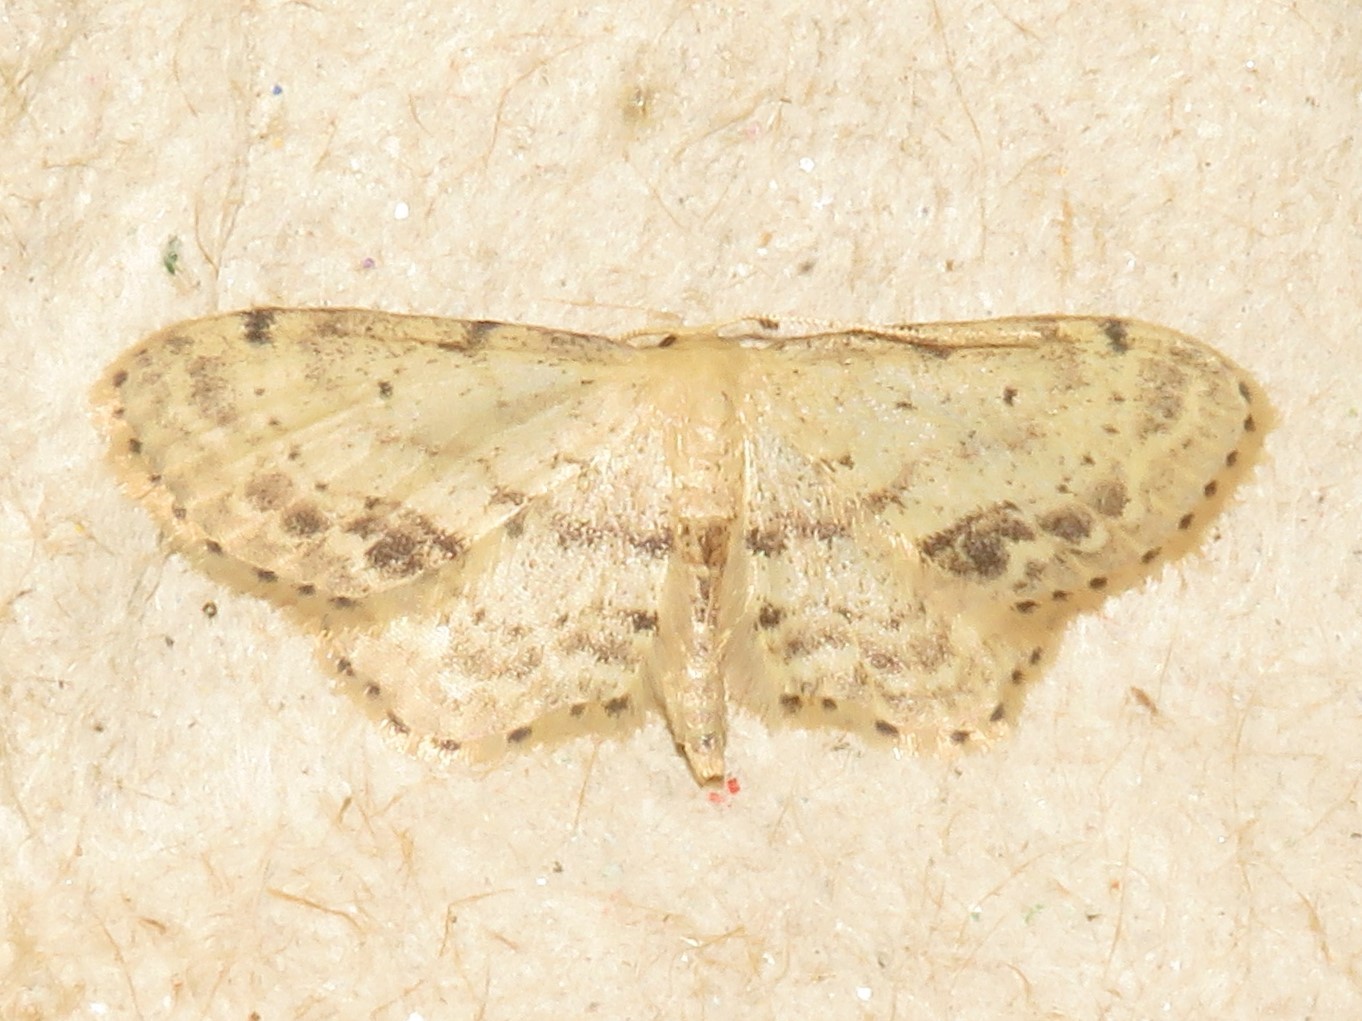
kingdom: Animalia
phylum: Arthropoda
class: Insecta
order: Lepidoptera
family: Geometridae
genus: Idaea
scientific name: Idaea dimidiata
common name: Single-dotted wave
